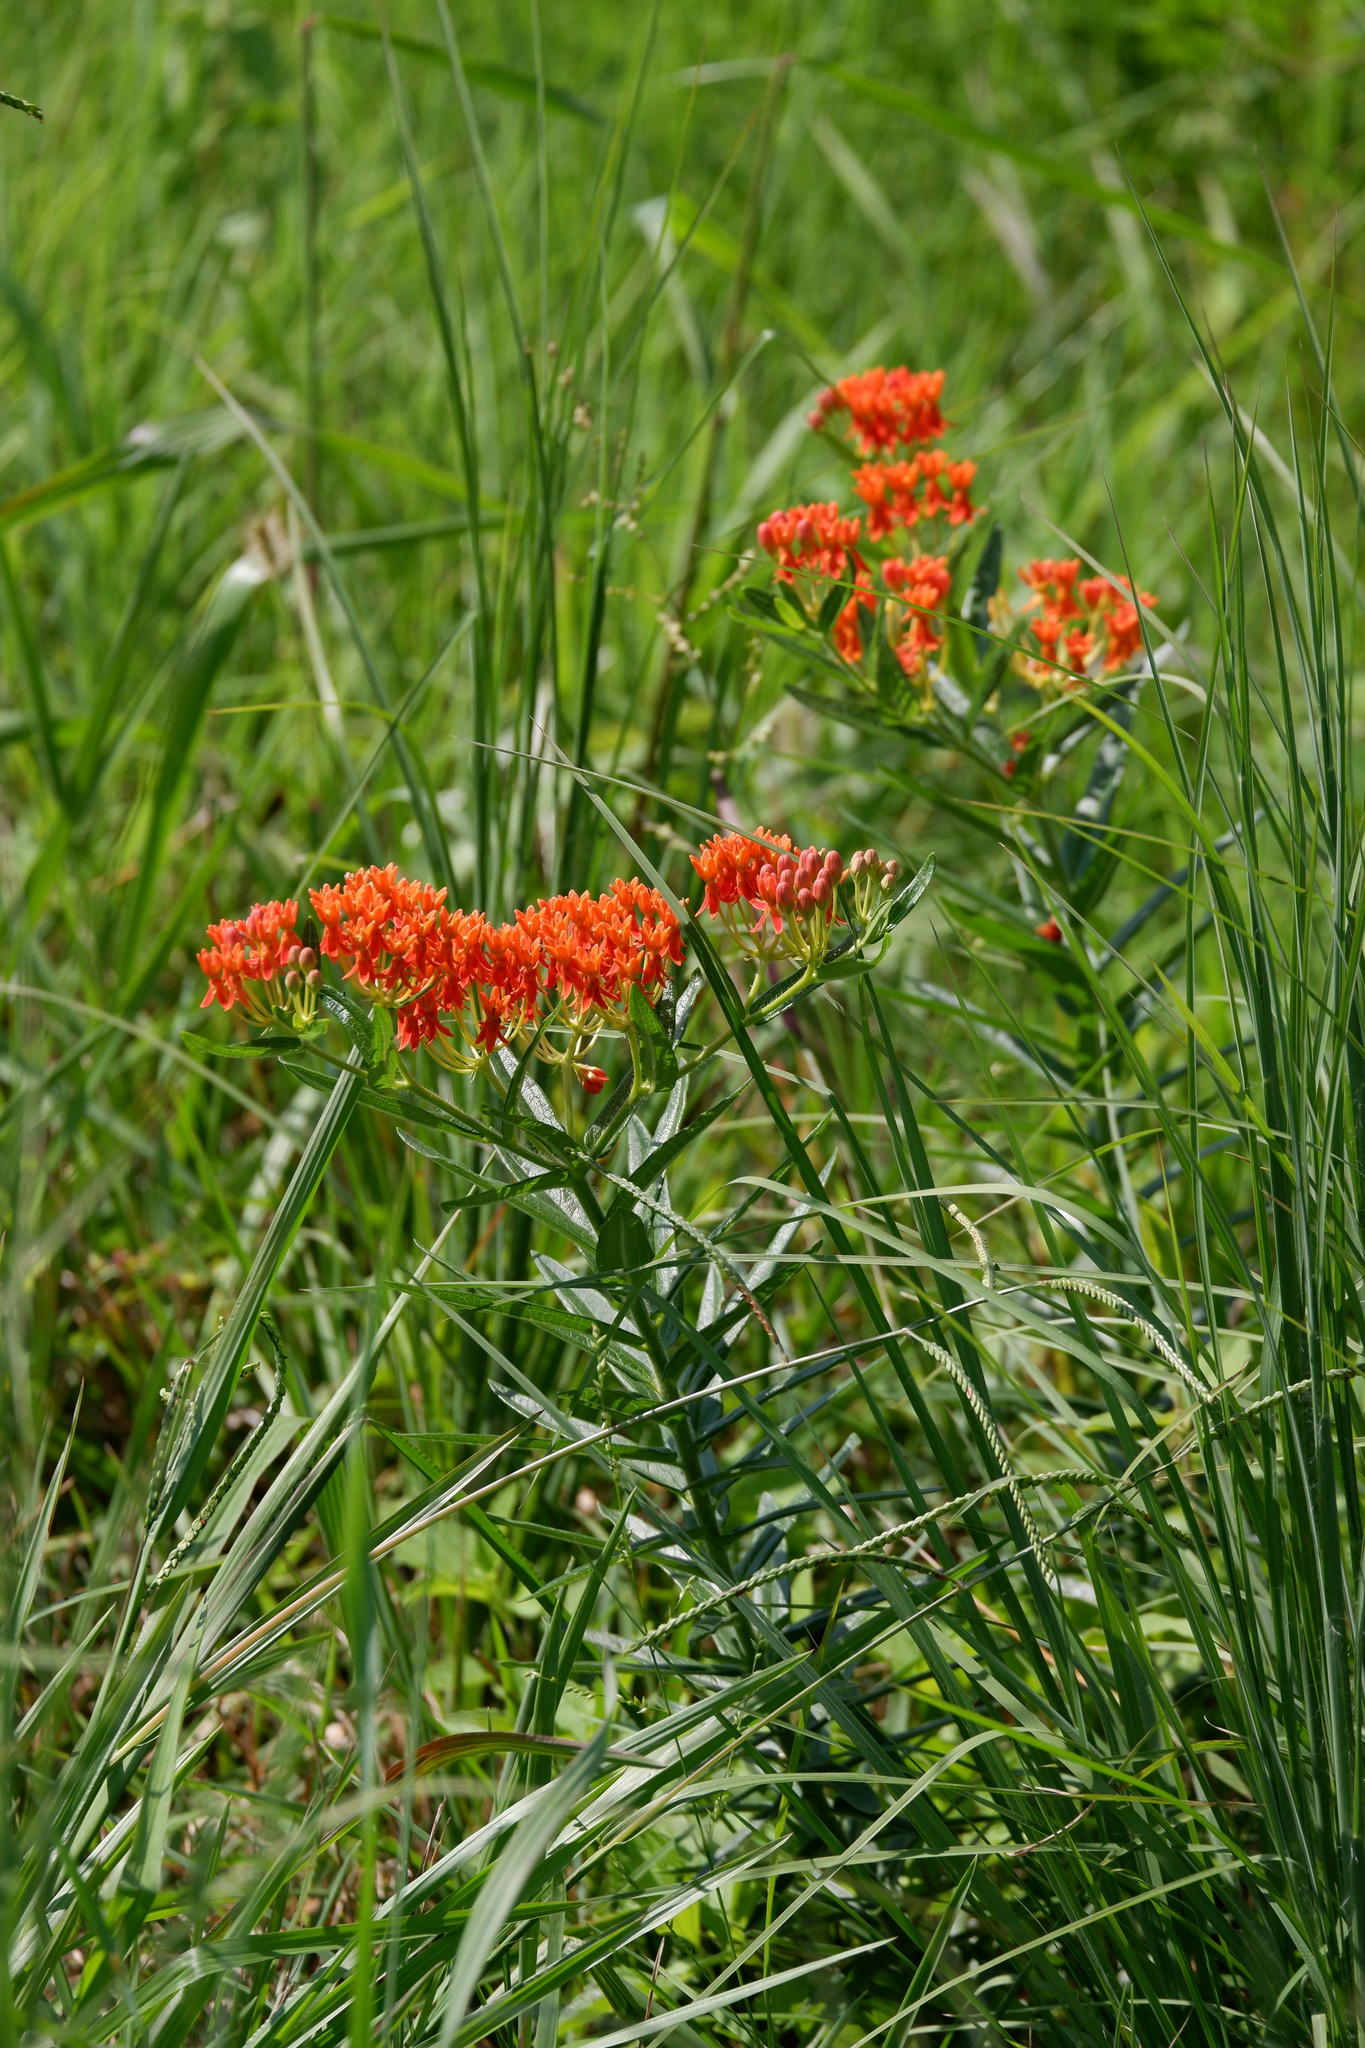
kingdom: Plantae
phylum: Tracheophyta
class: Magnoliopsida
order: Gentianales
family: Apocynaceae
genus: Asclepias
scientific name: Asclepias tuberosa
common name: Butterfly milkweed
